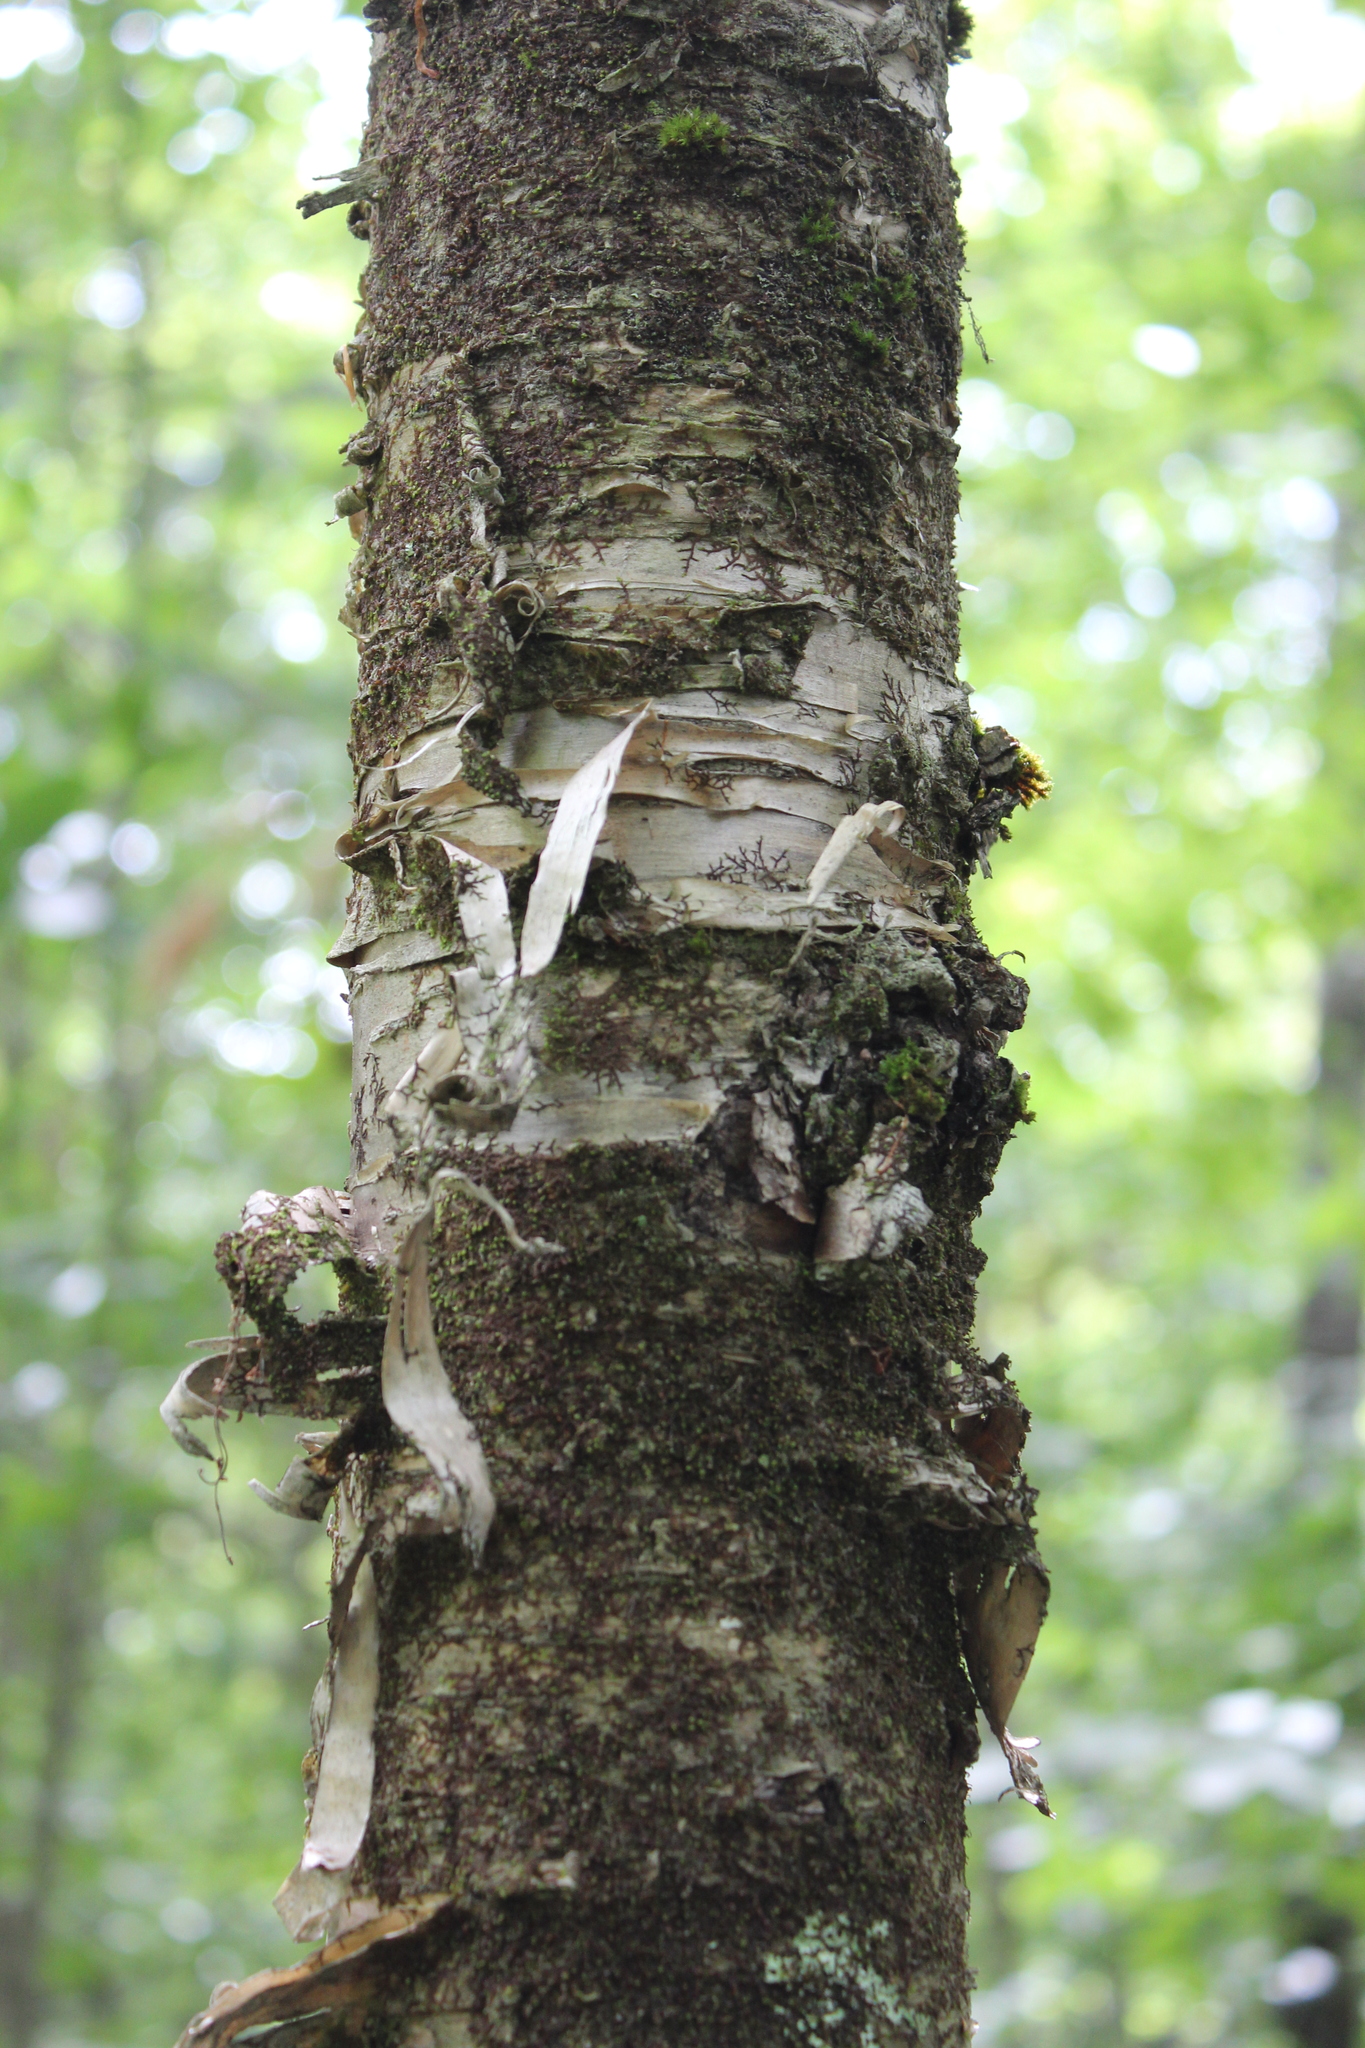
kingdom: Plantae
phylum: Tracheophyta
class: Magnoliopsida
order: Fagales
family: Betulaceae
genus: Betula
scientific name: Betula alleghaniensis
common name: Yellow birch
